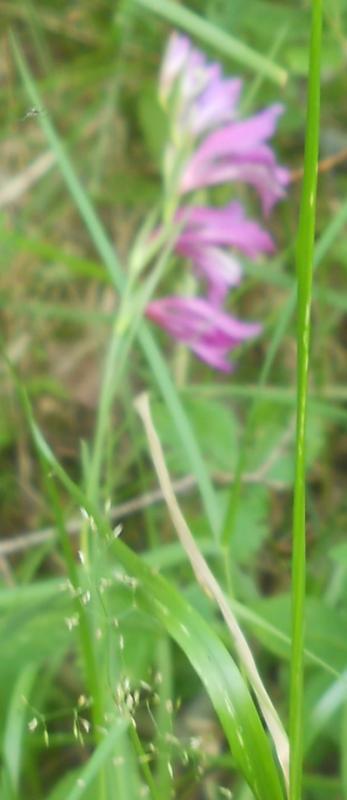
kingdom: Plantae
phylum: Tracheophyta
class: Liliopsida
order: Asparagales
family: Iridaceae
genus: Gladiolus
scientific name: Gladiolus imbricatus
